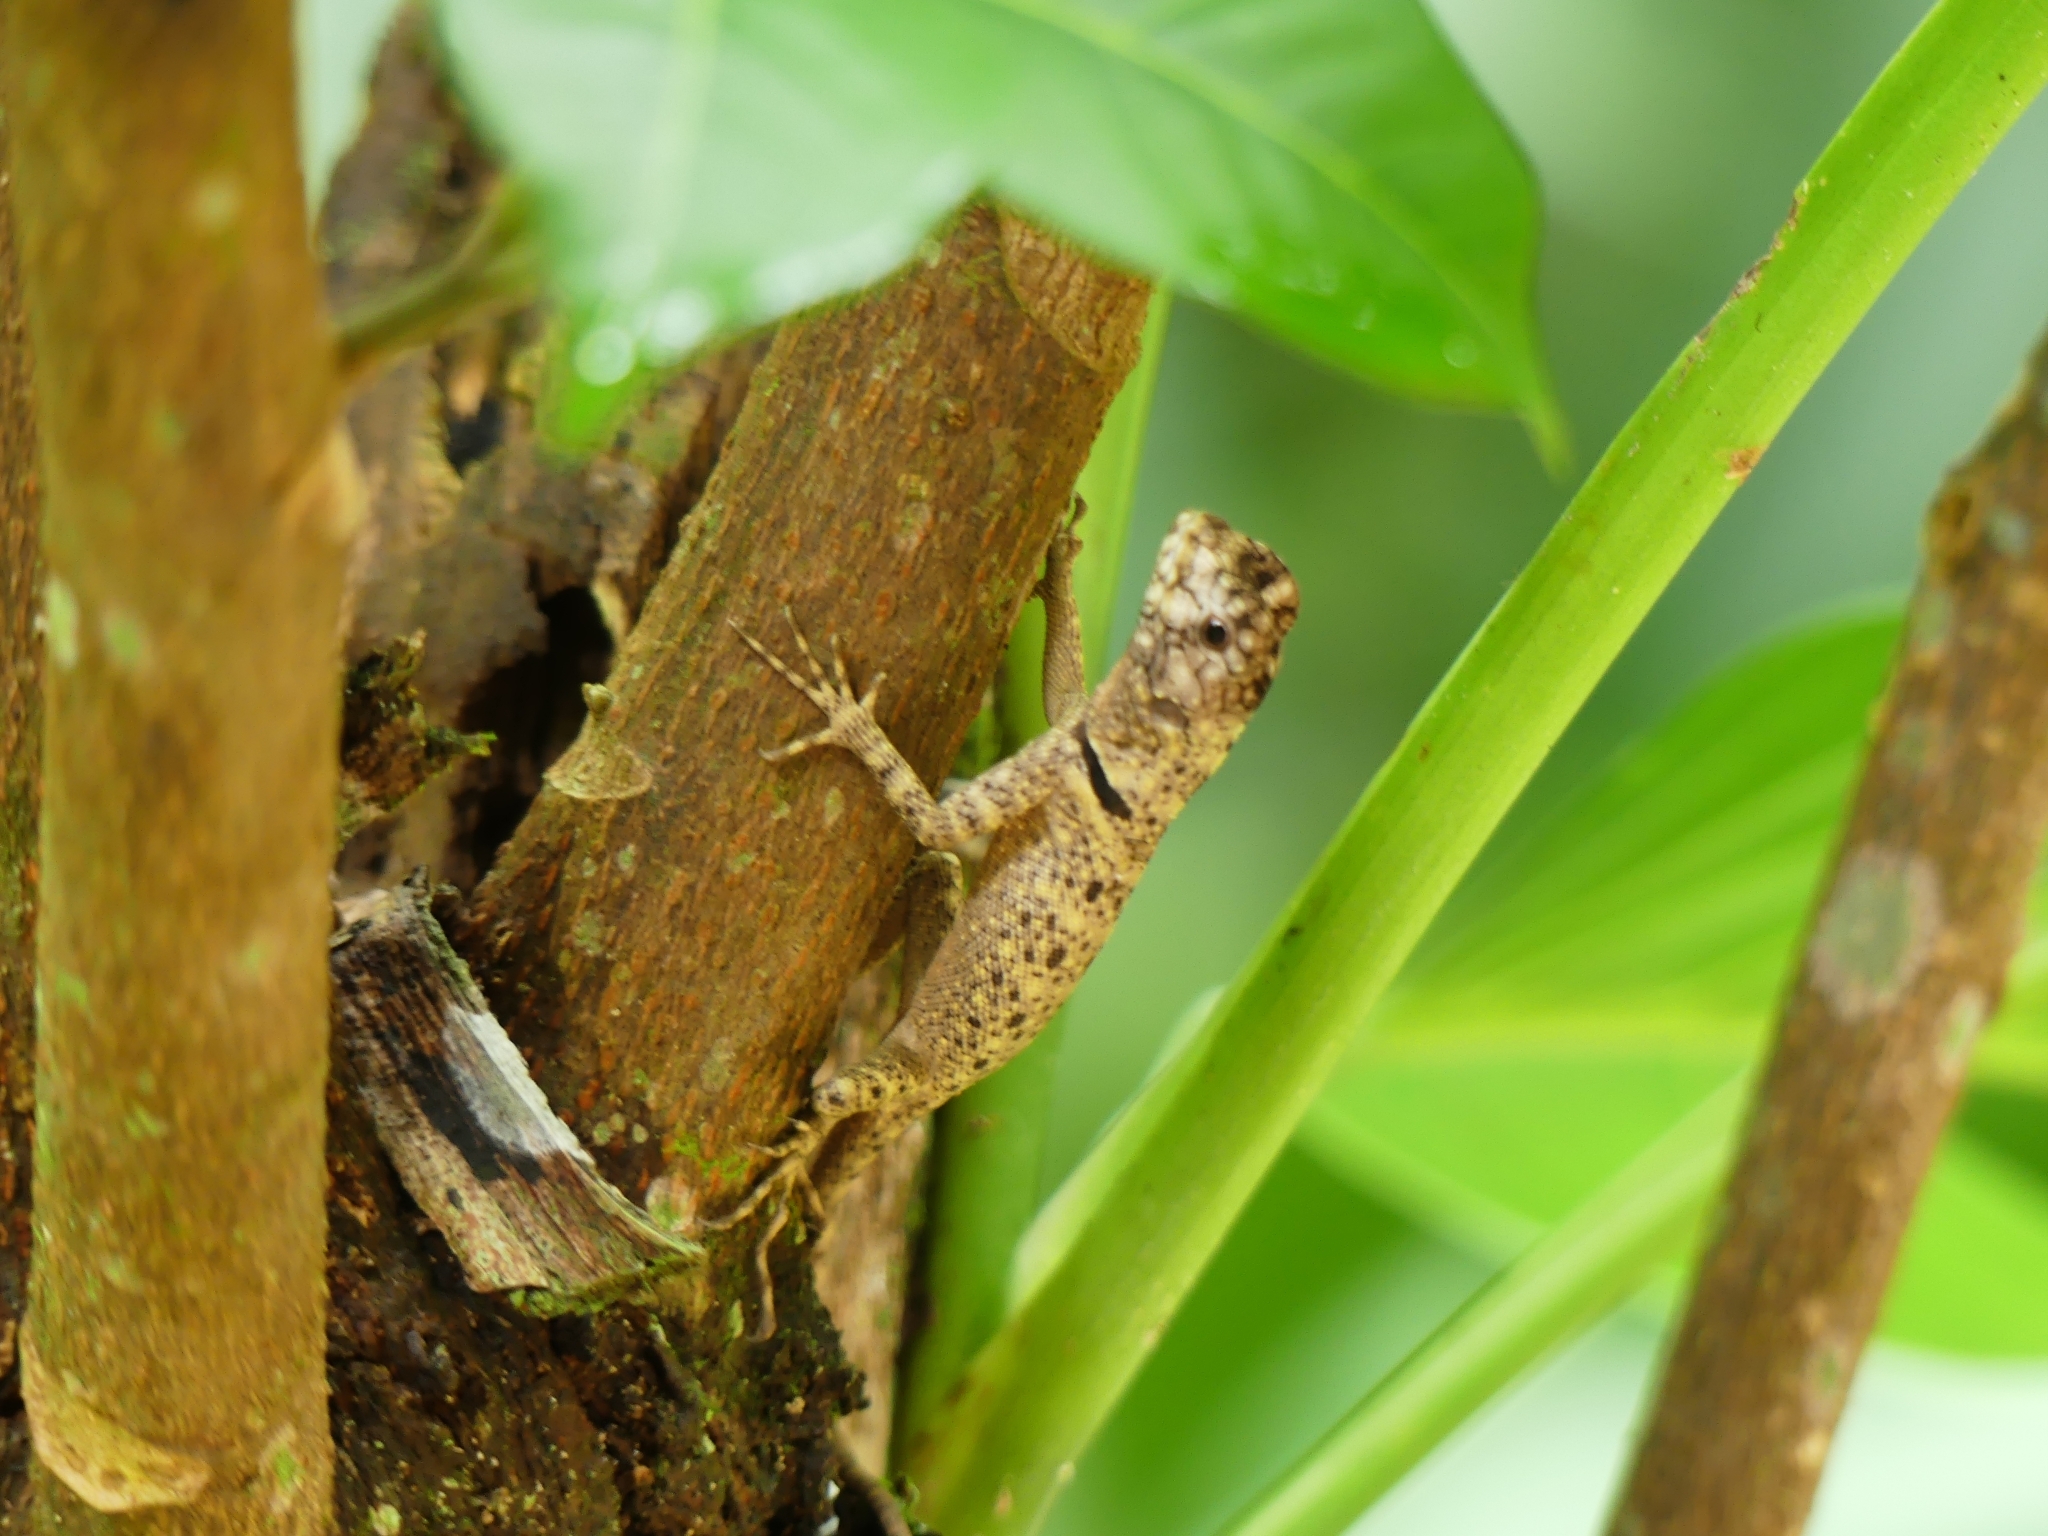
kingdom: Animalia
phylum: Chordata
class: Squamata
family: Tropiduridae
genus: Plica
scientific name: Plica umbra
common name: Harlequin racerunner
